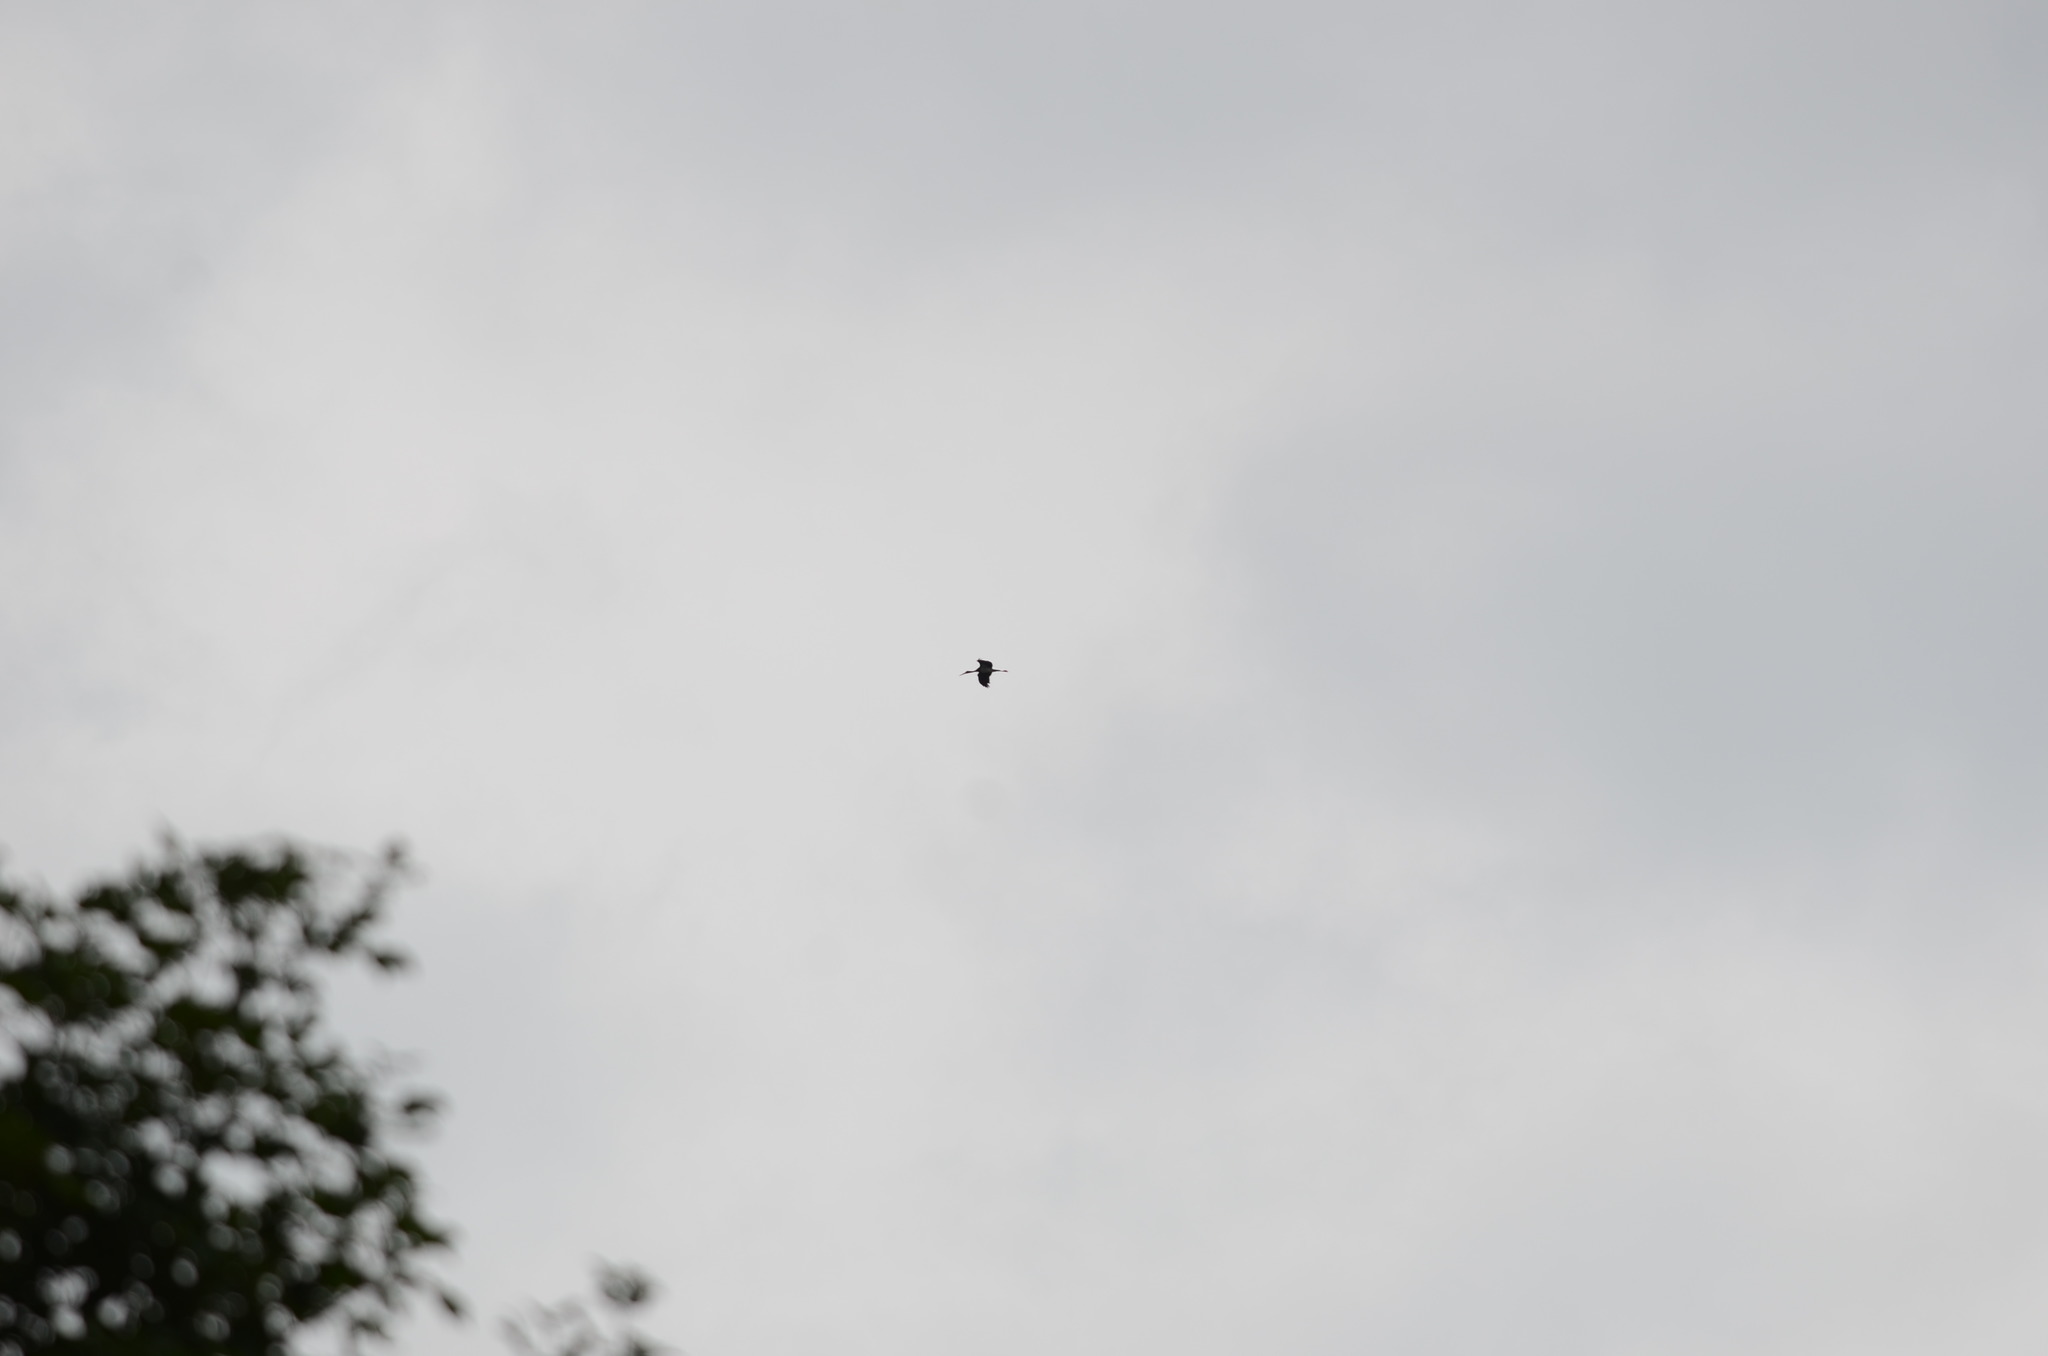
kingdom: Animalia
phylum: Chordata
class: Aves
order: Ciconiiformes
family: Ciconiidae
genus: Ciconia
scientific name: Ciconia nigra
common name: Black stork
